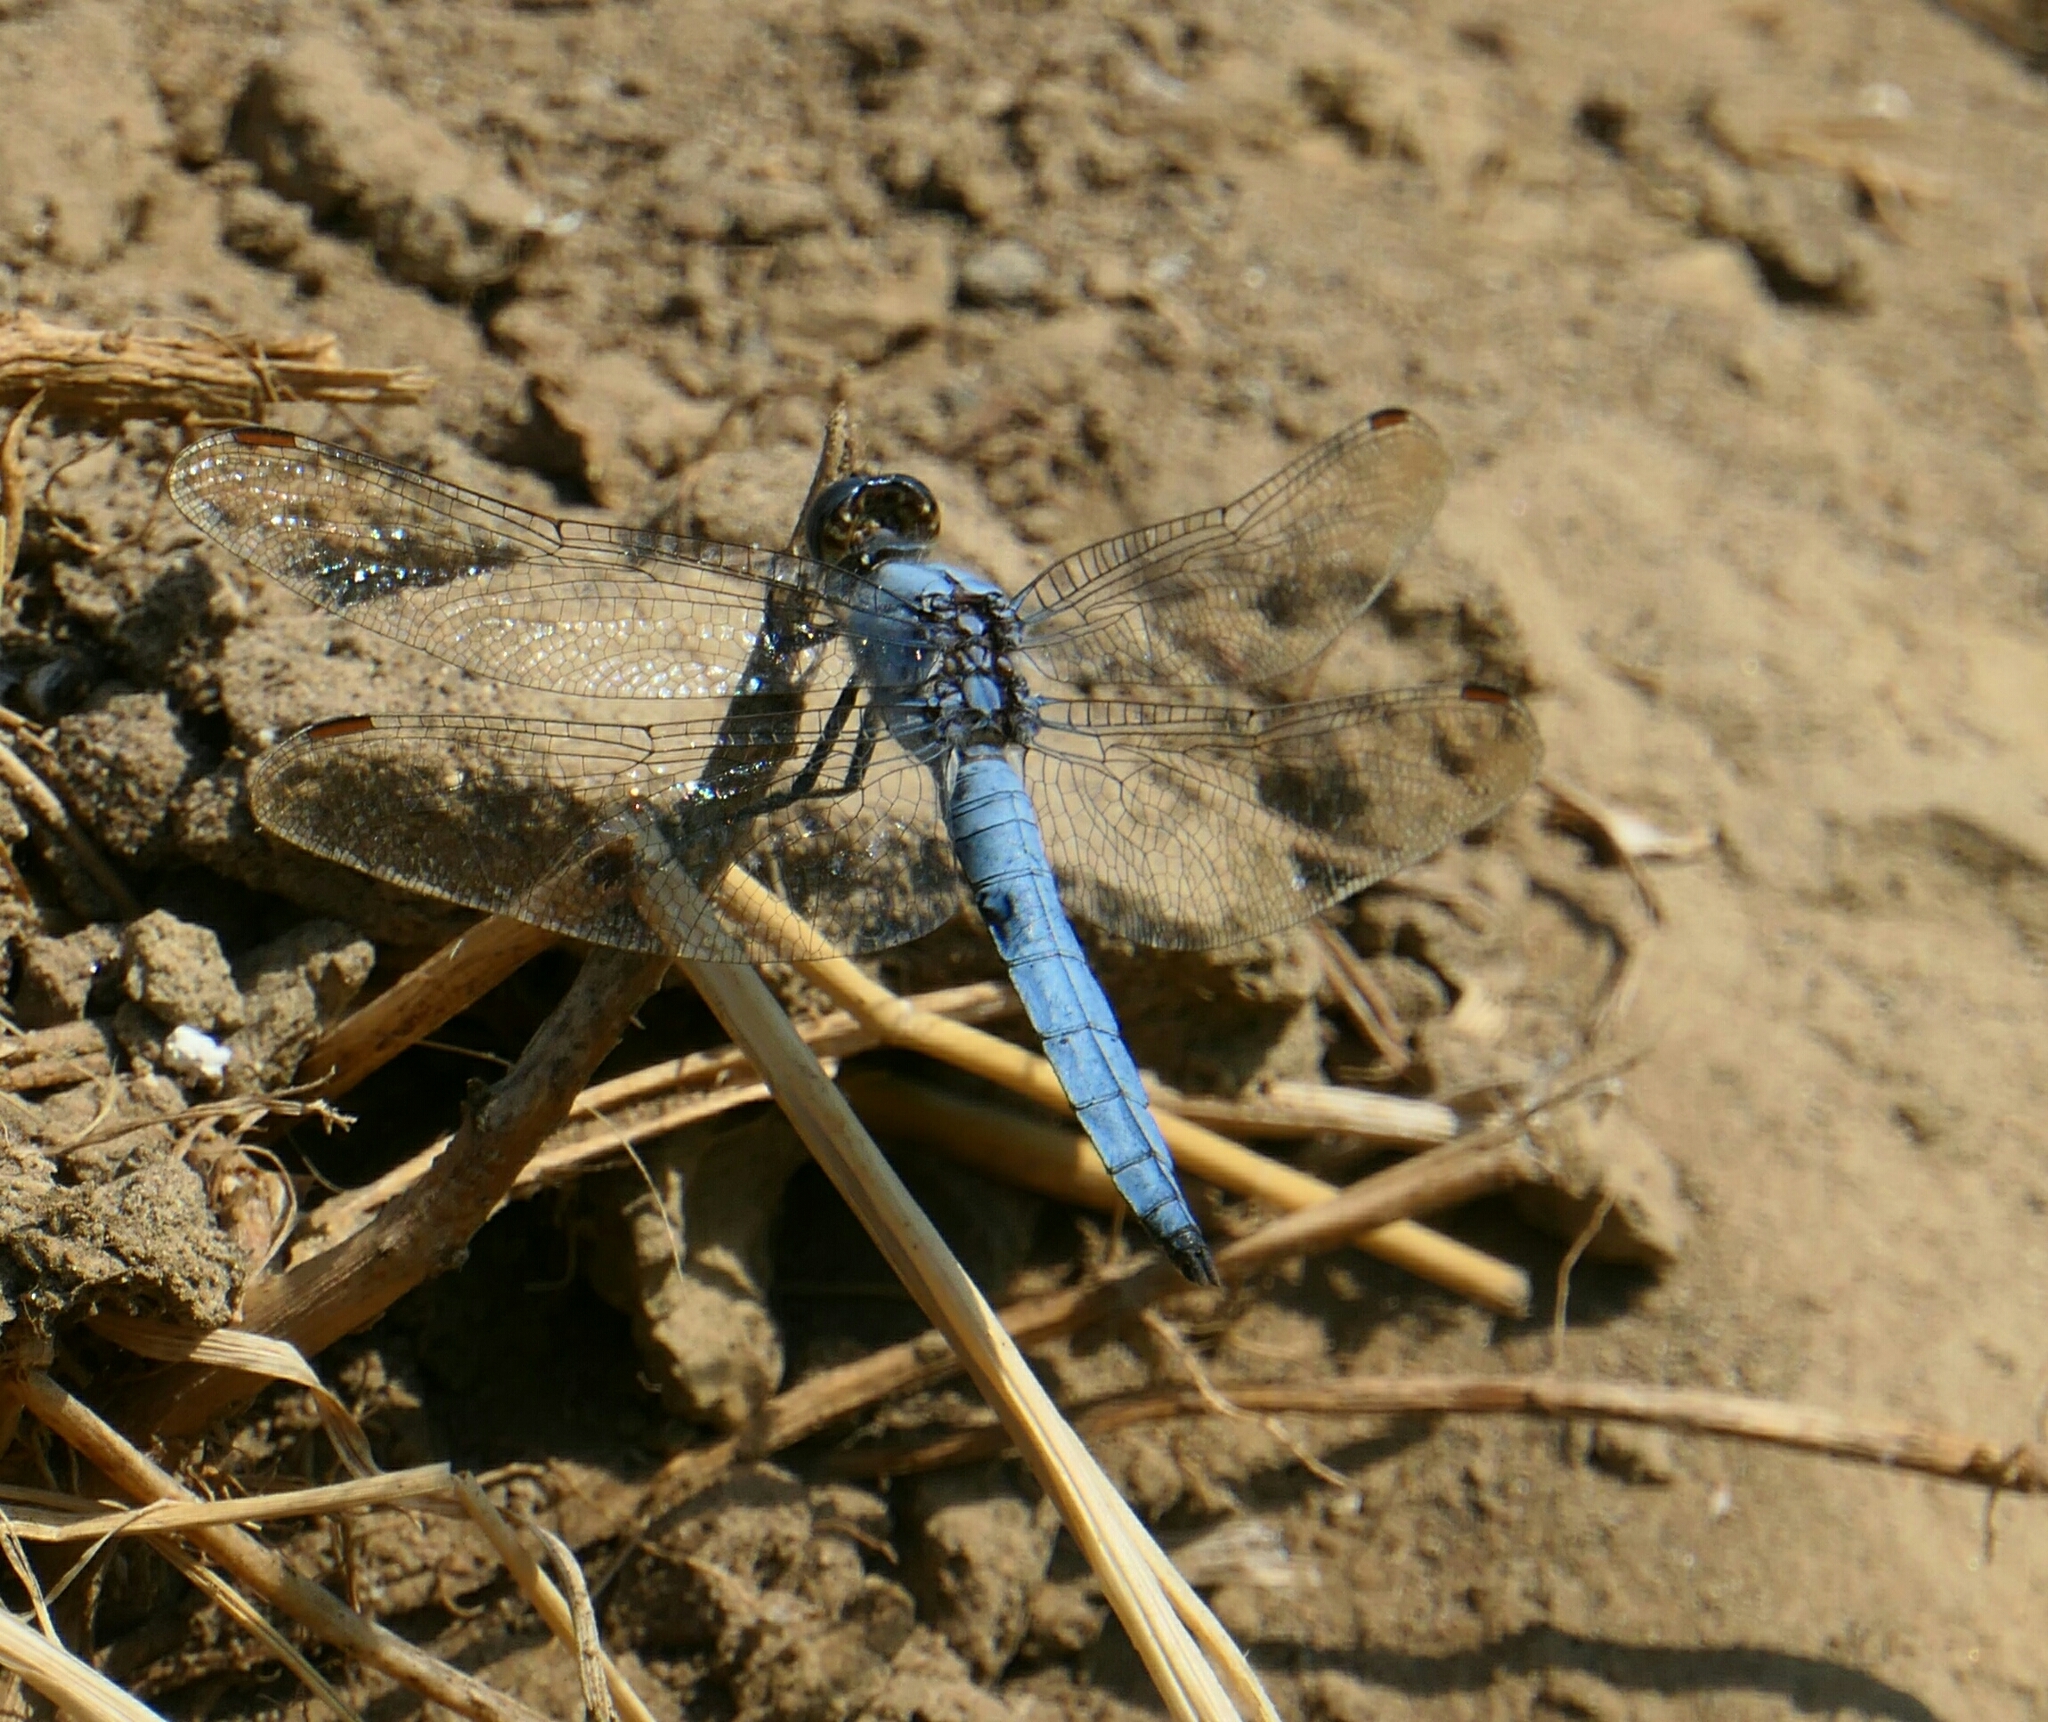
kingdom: Animalia
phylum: Arthropoda
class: Insecta
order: Odonata
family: Libellulidae
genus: Orthetrum
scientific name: Orthetrum brunneum
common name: Southern skimmer
